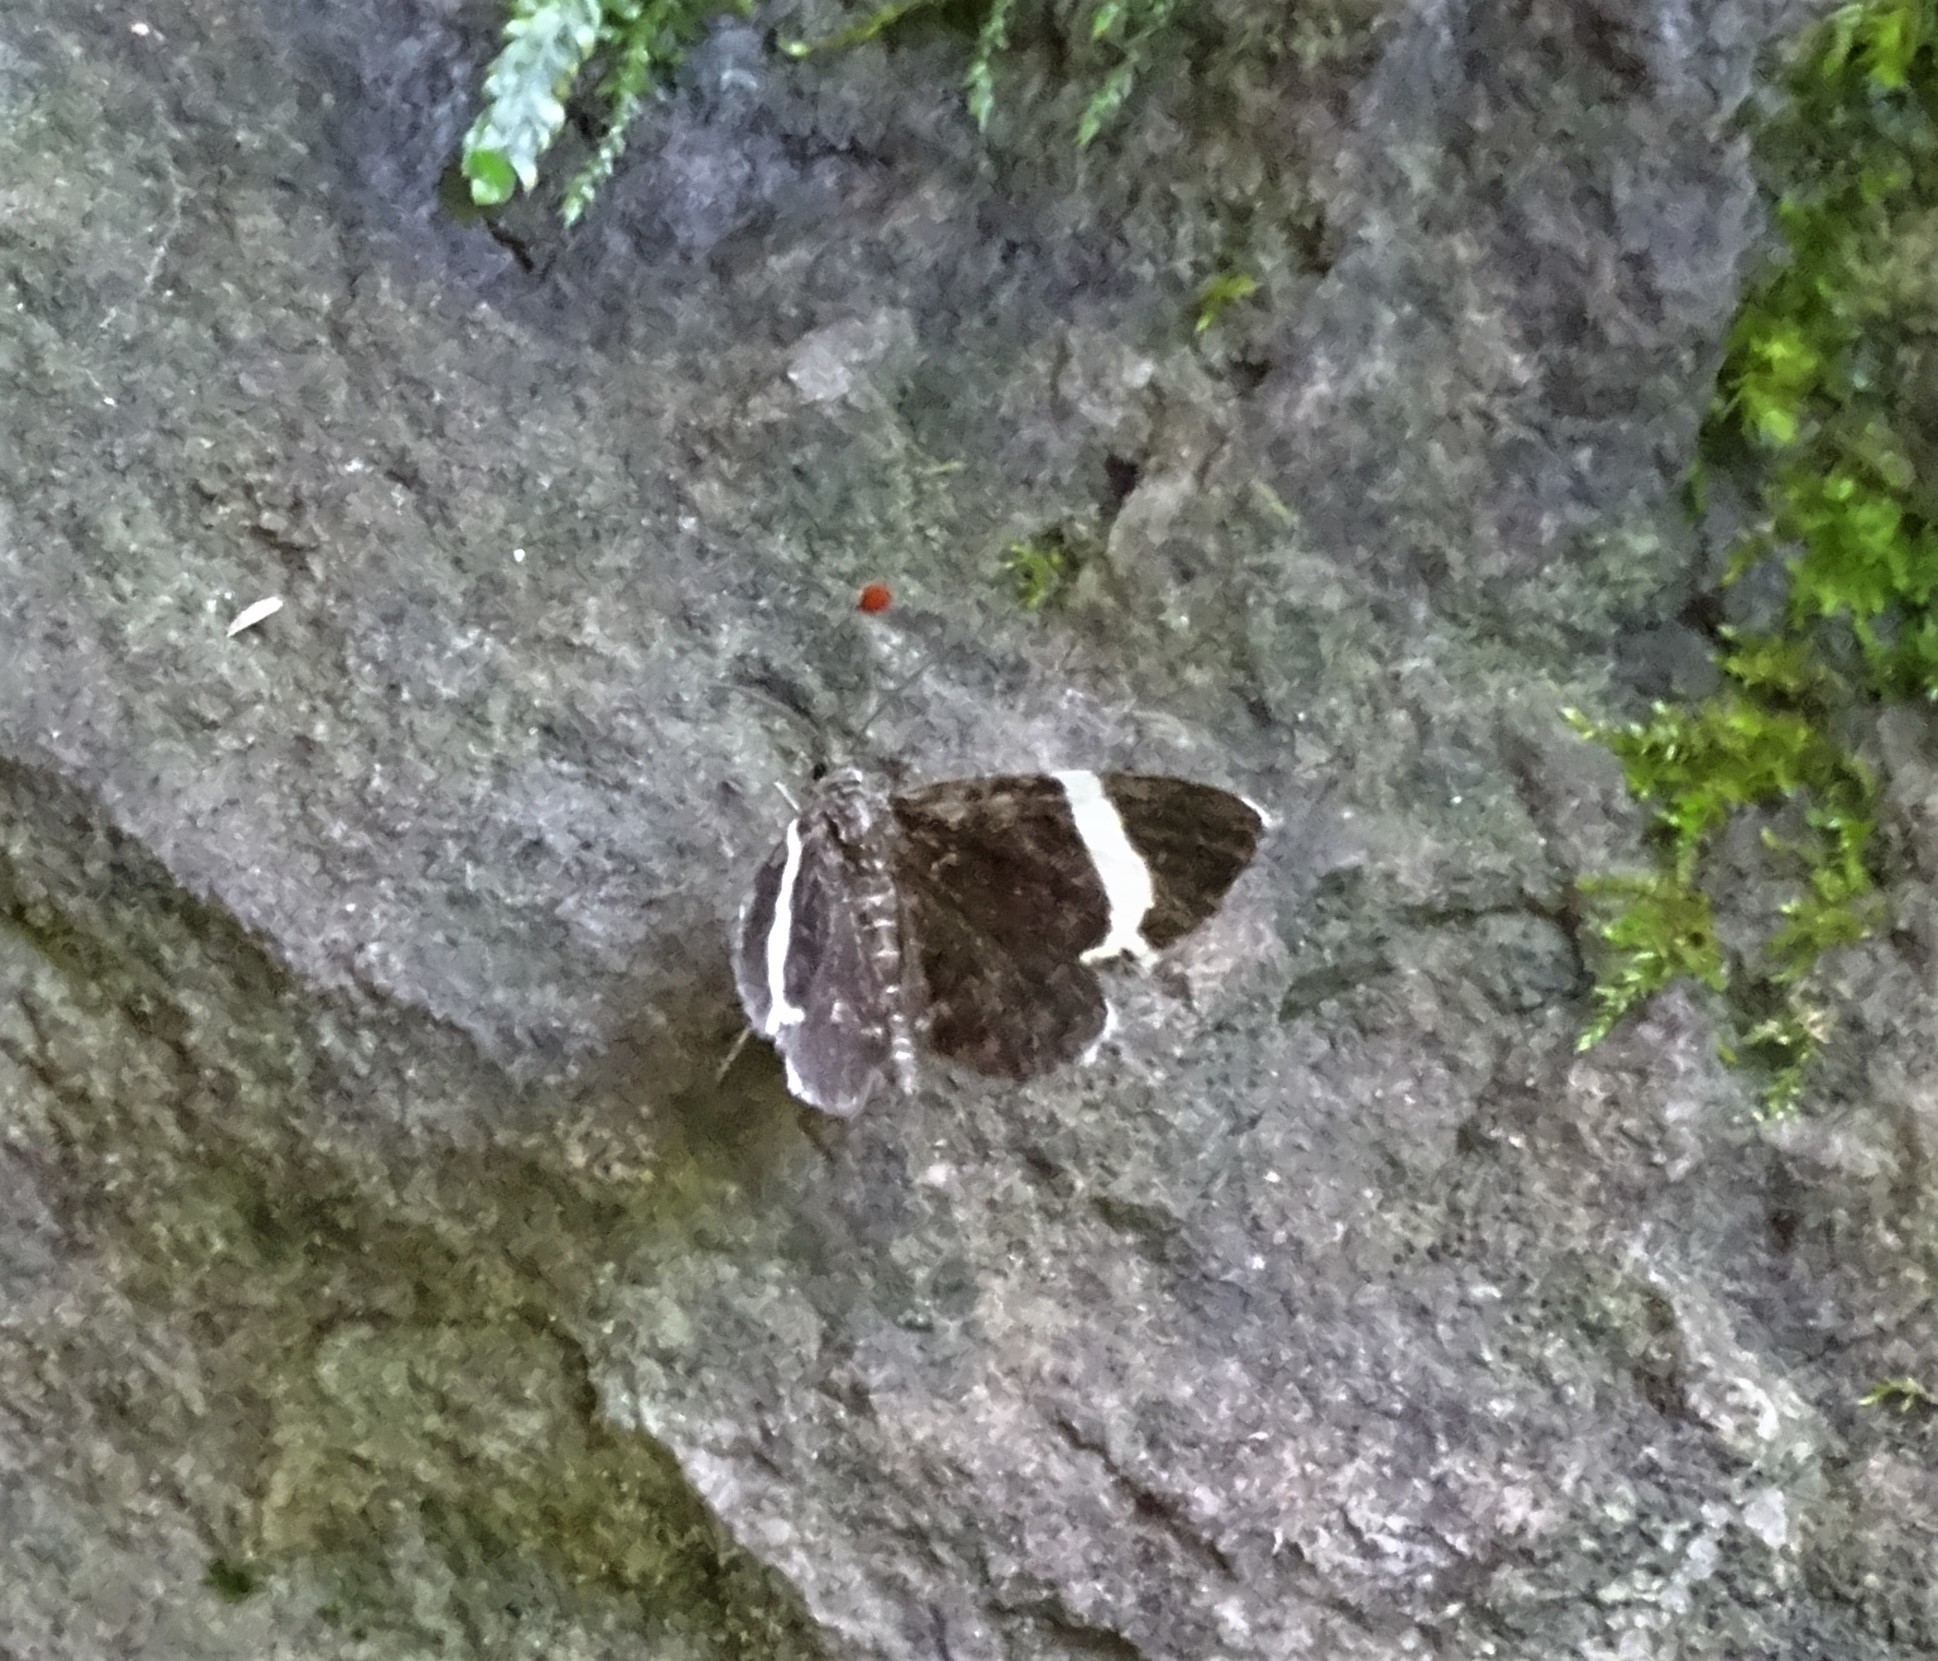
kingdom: Animalia
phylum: Arthropoda
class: Insecta
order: Lepidoptera
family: Geometridae
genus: Trichodezia
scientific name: Trichodezia albovittata
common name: White striped black
